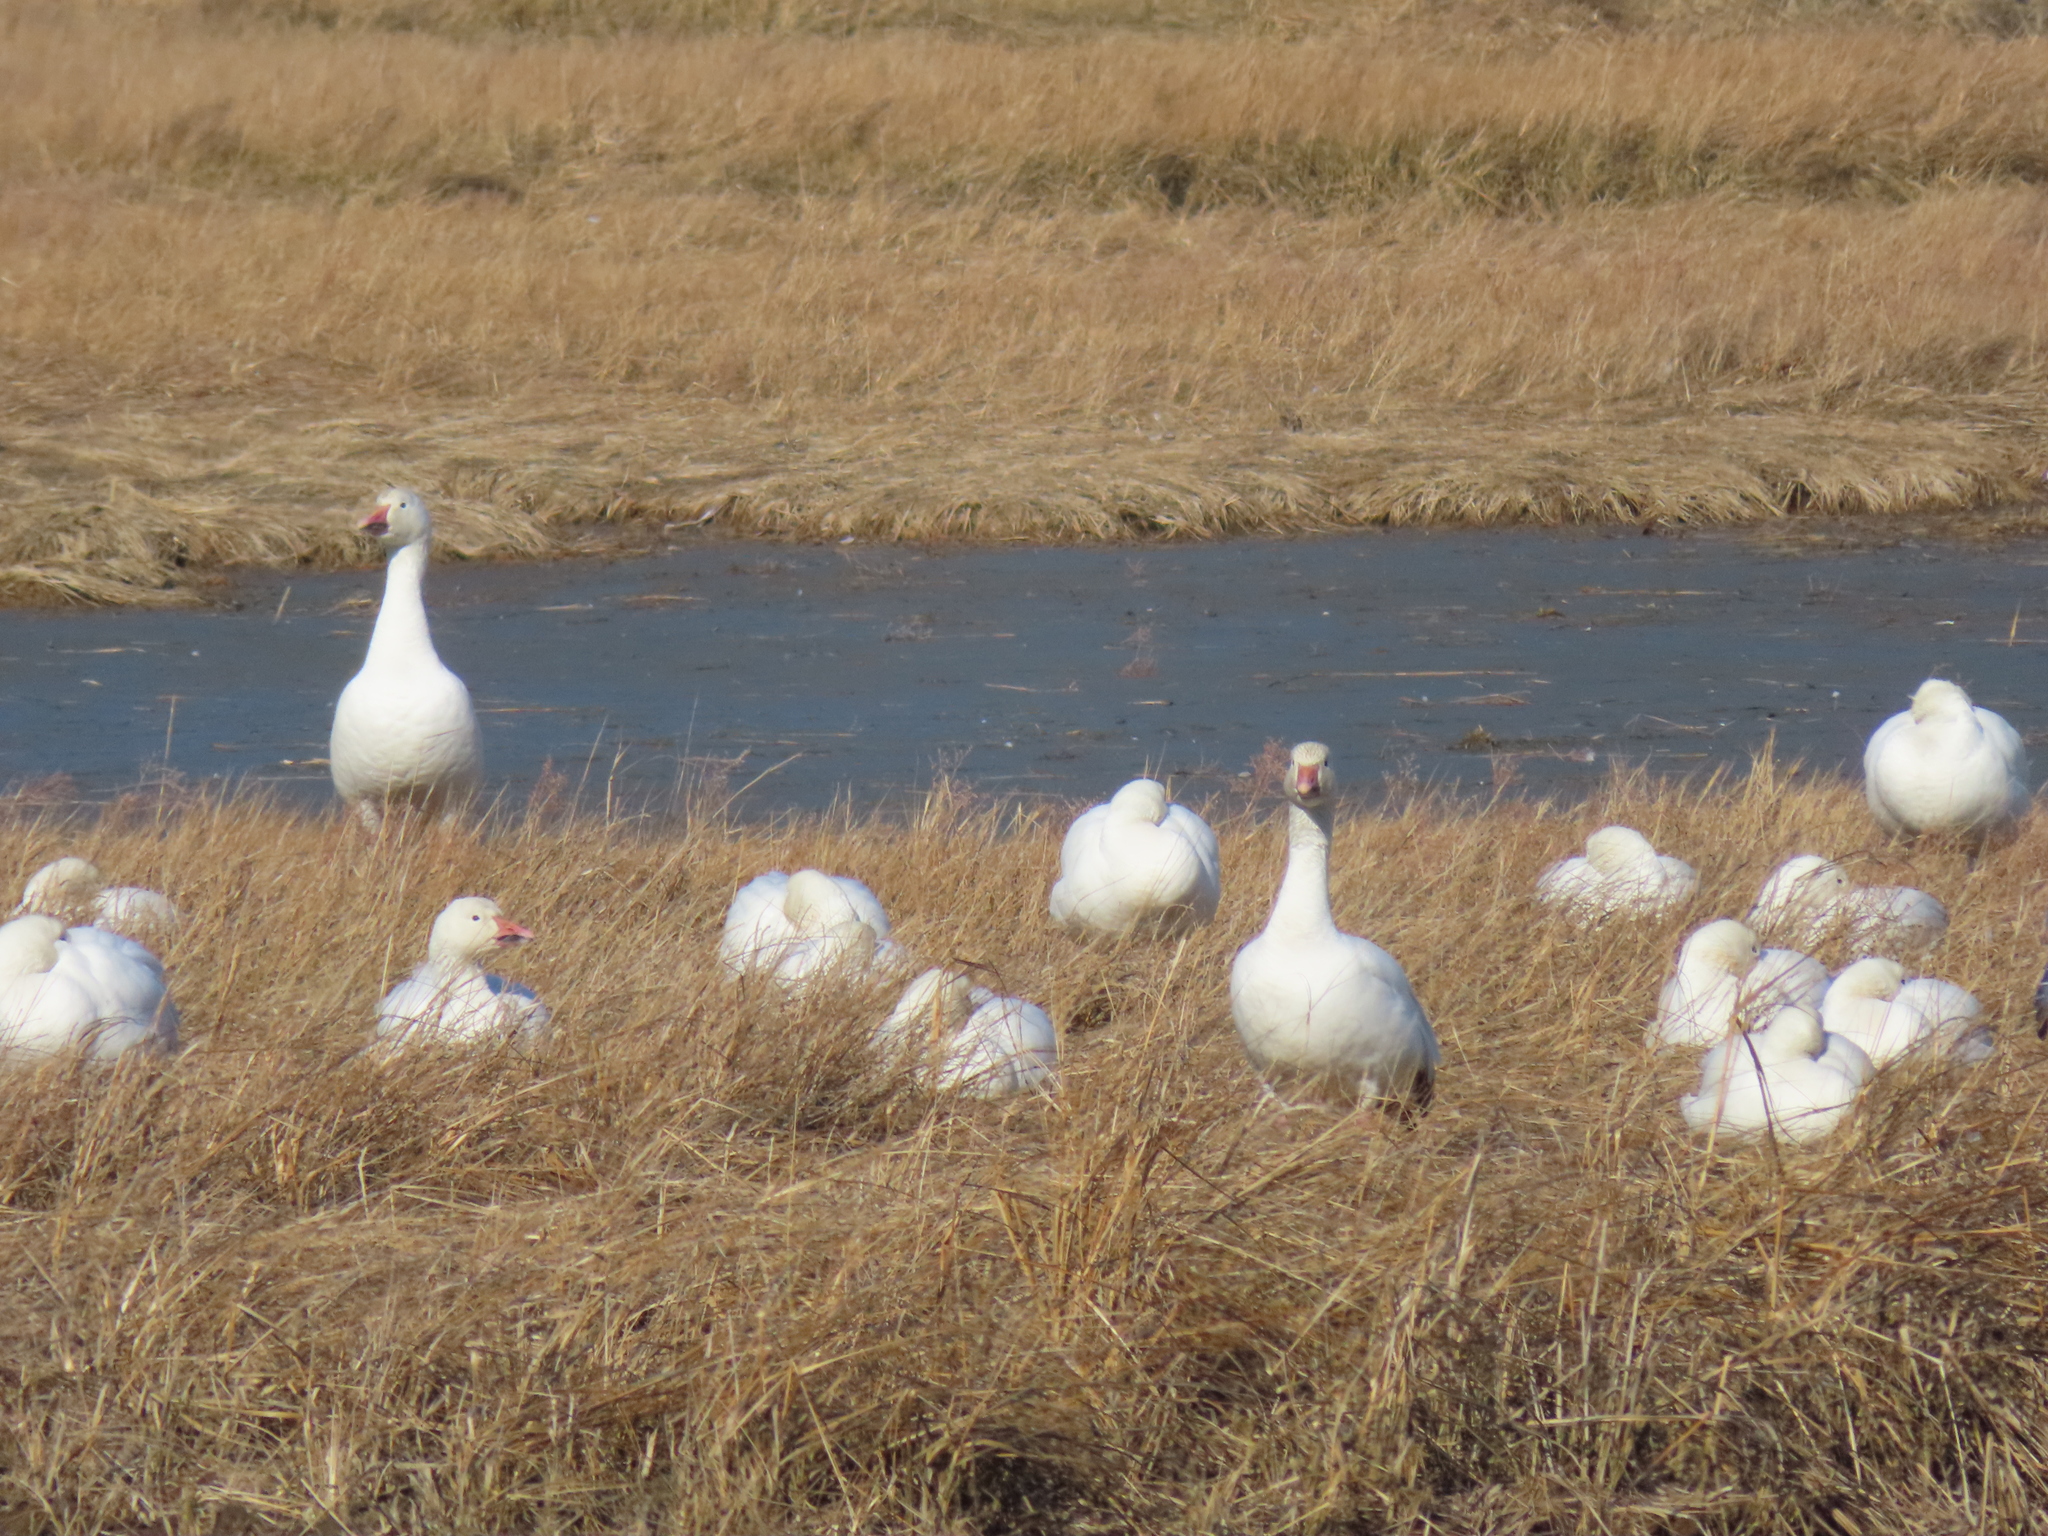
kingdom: Animalia
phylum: Chordata
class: Aves
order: Anseriformes
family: Anatidae
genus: Anser
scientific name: Anser caerulescens
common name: Snow goose
